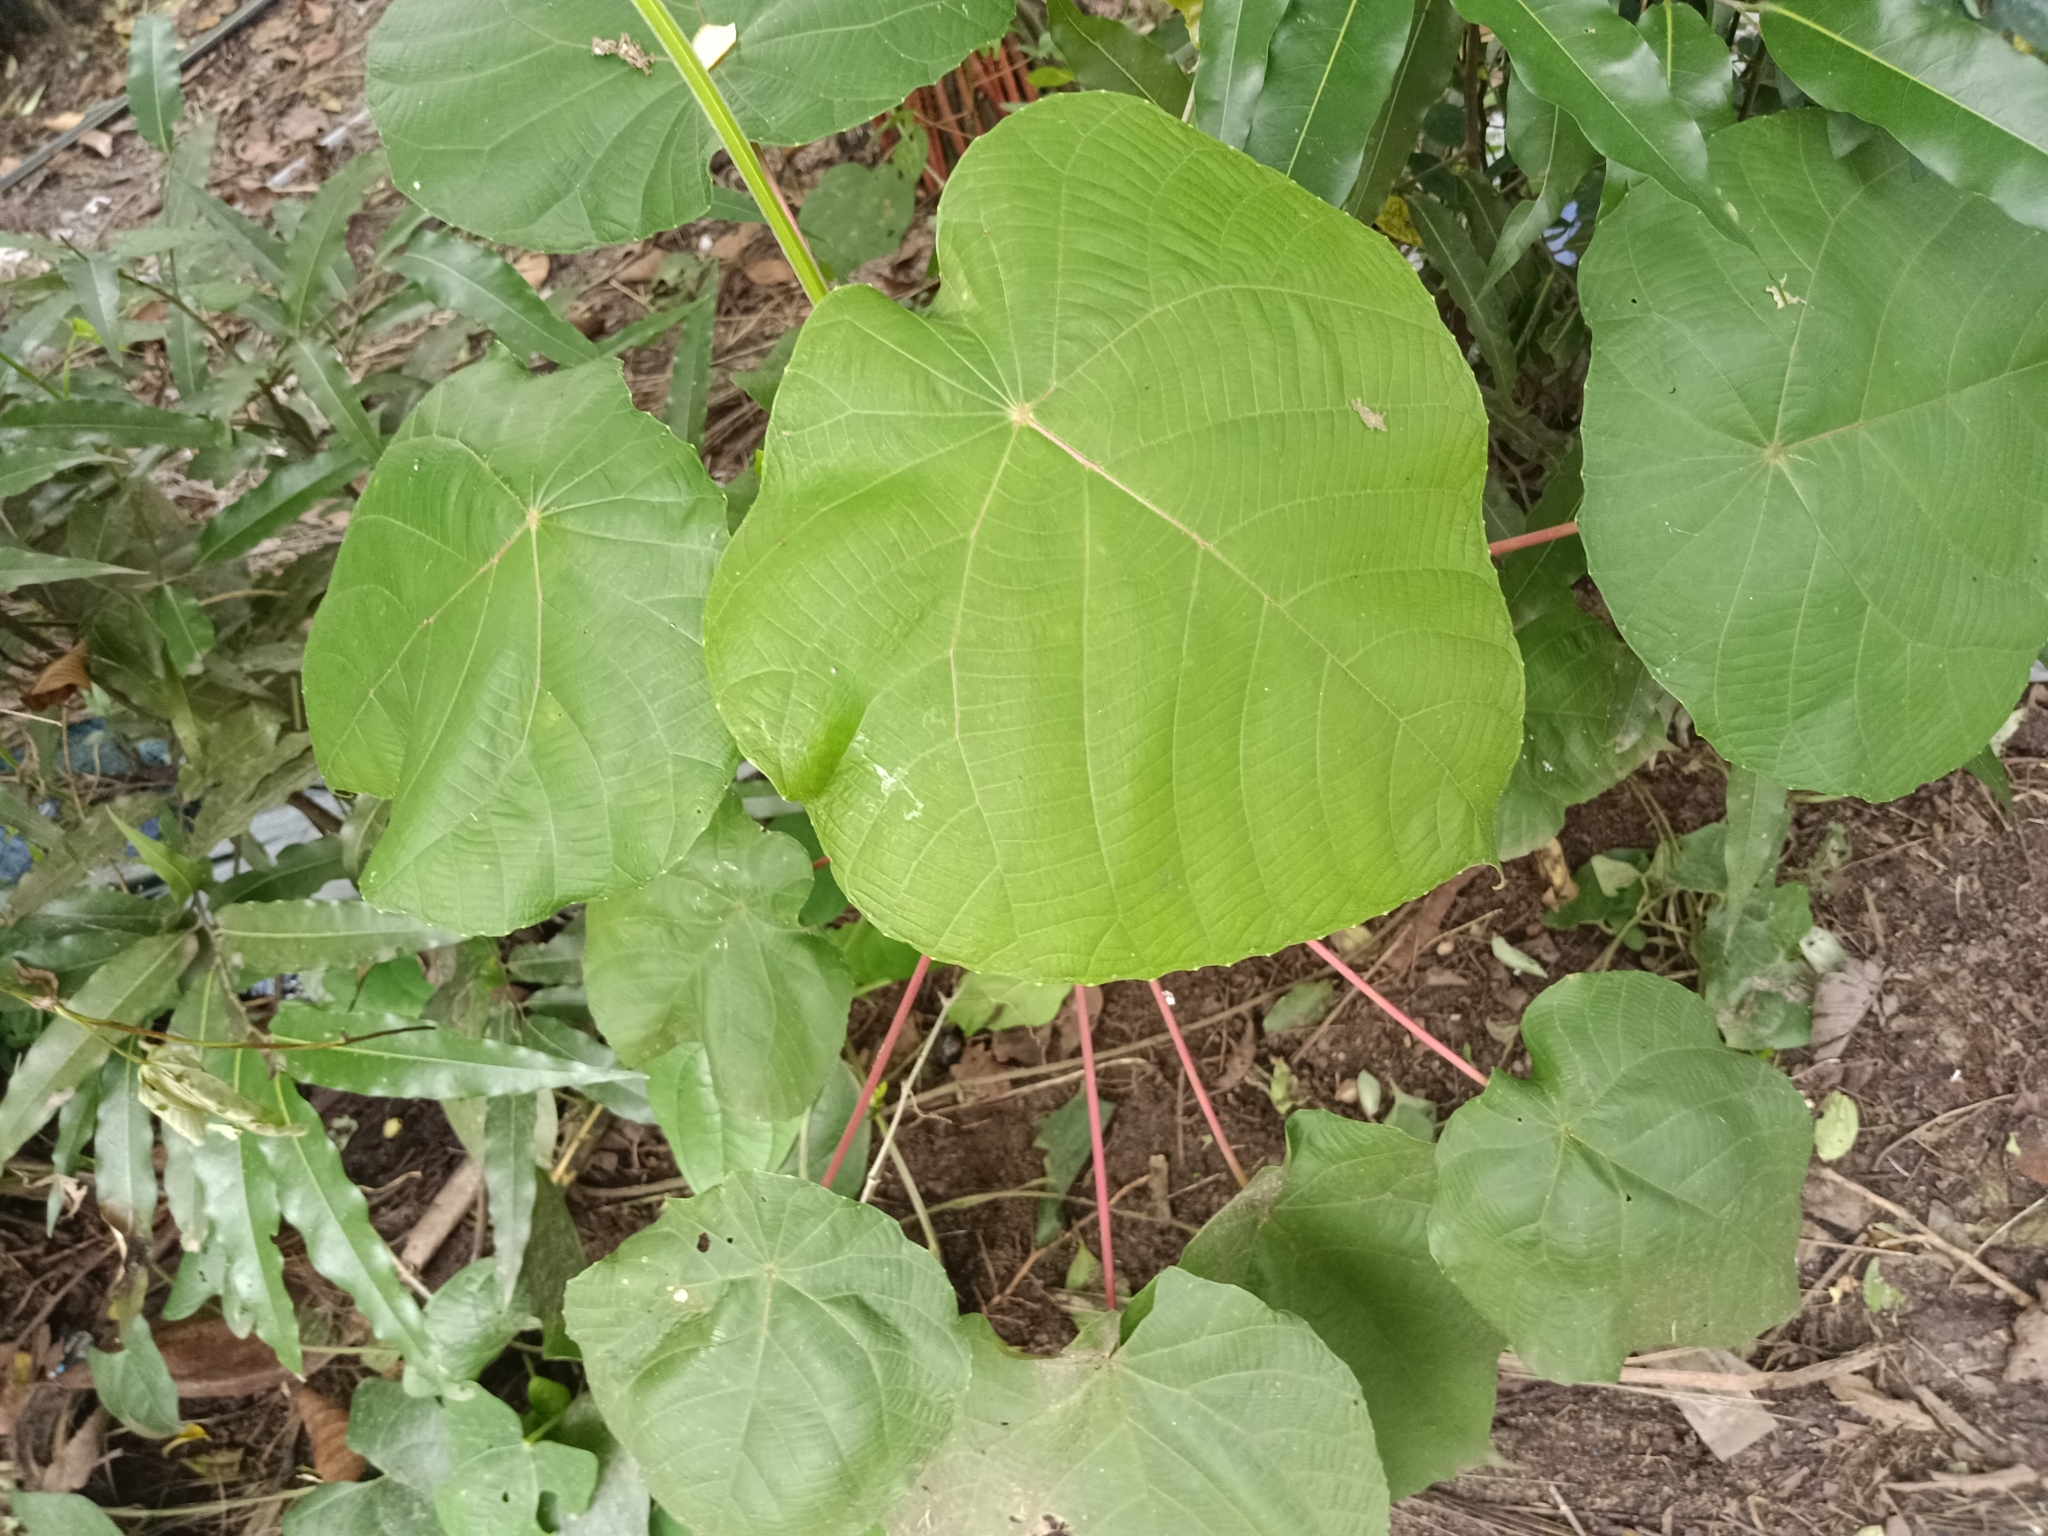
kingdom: Plantae
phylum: Tracheophyta
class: Magnoliopsida
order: Malpighiales
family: Euphorbiaceae
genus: Macaranga
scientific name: Macaranga tanarius
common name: Parasol leaf tree
